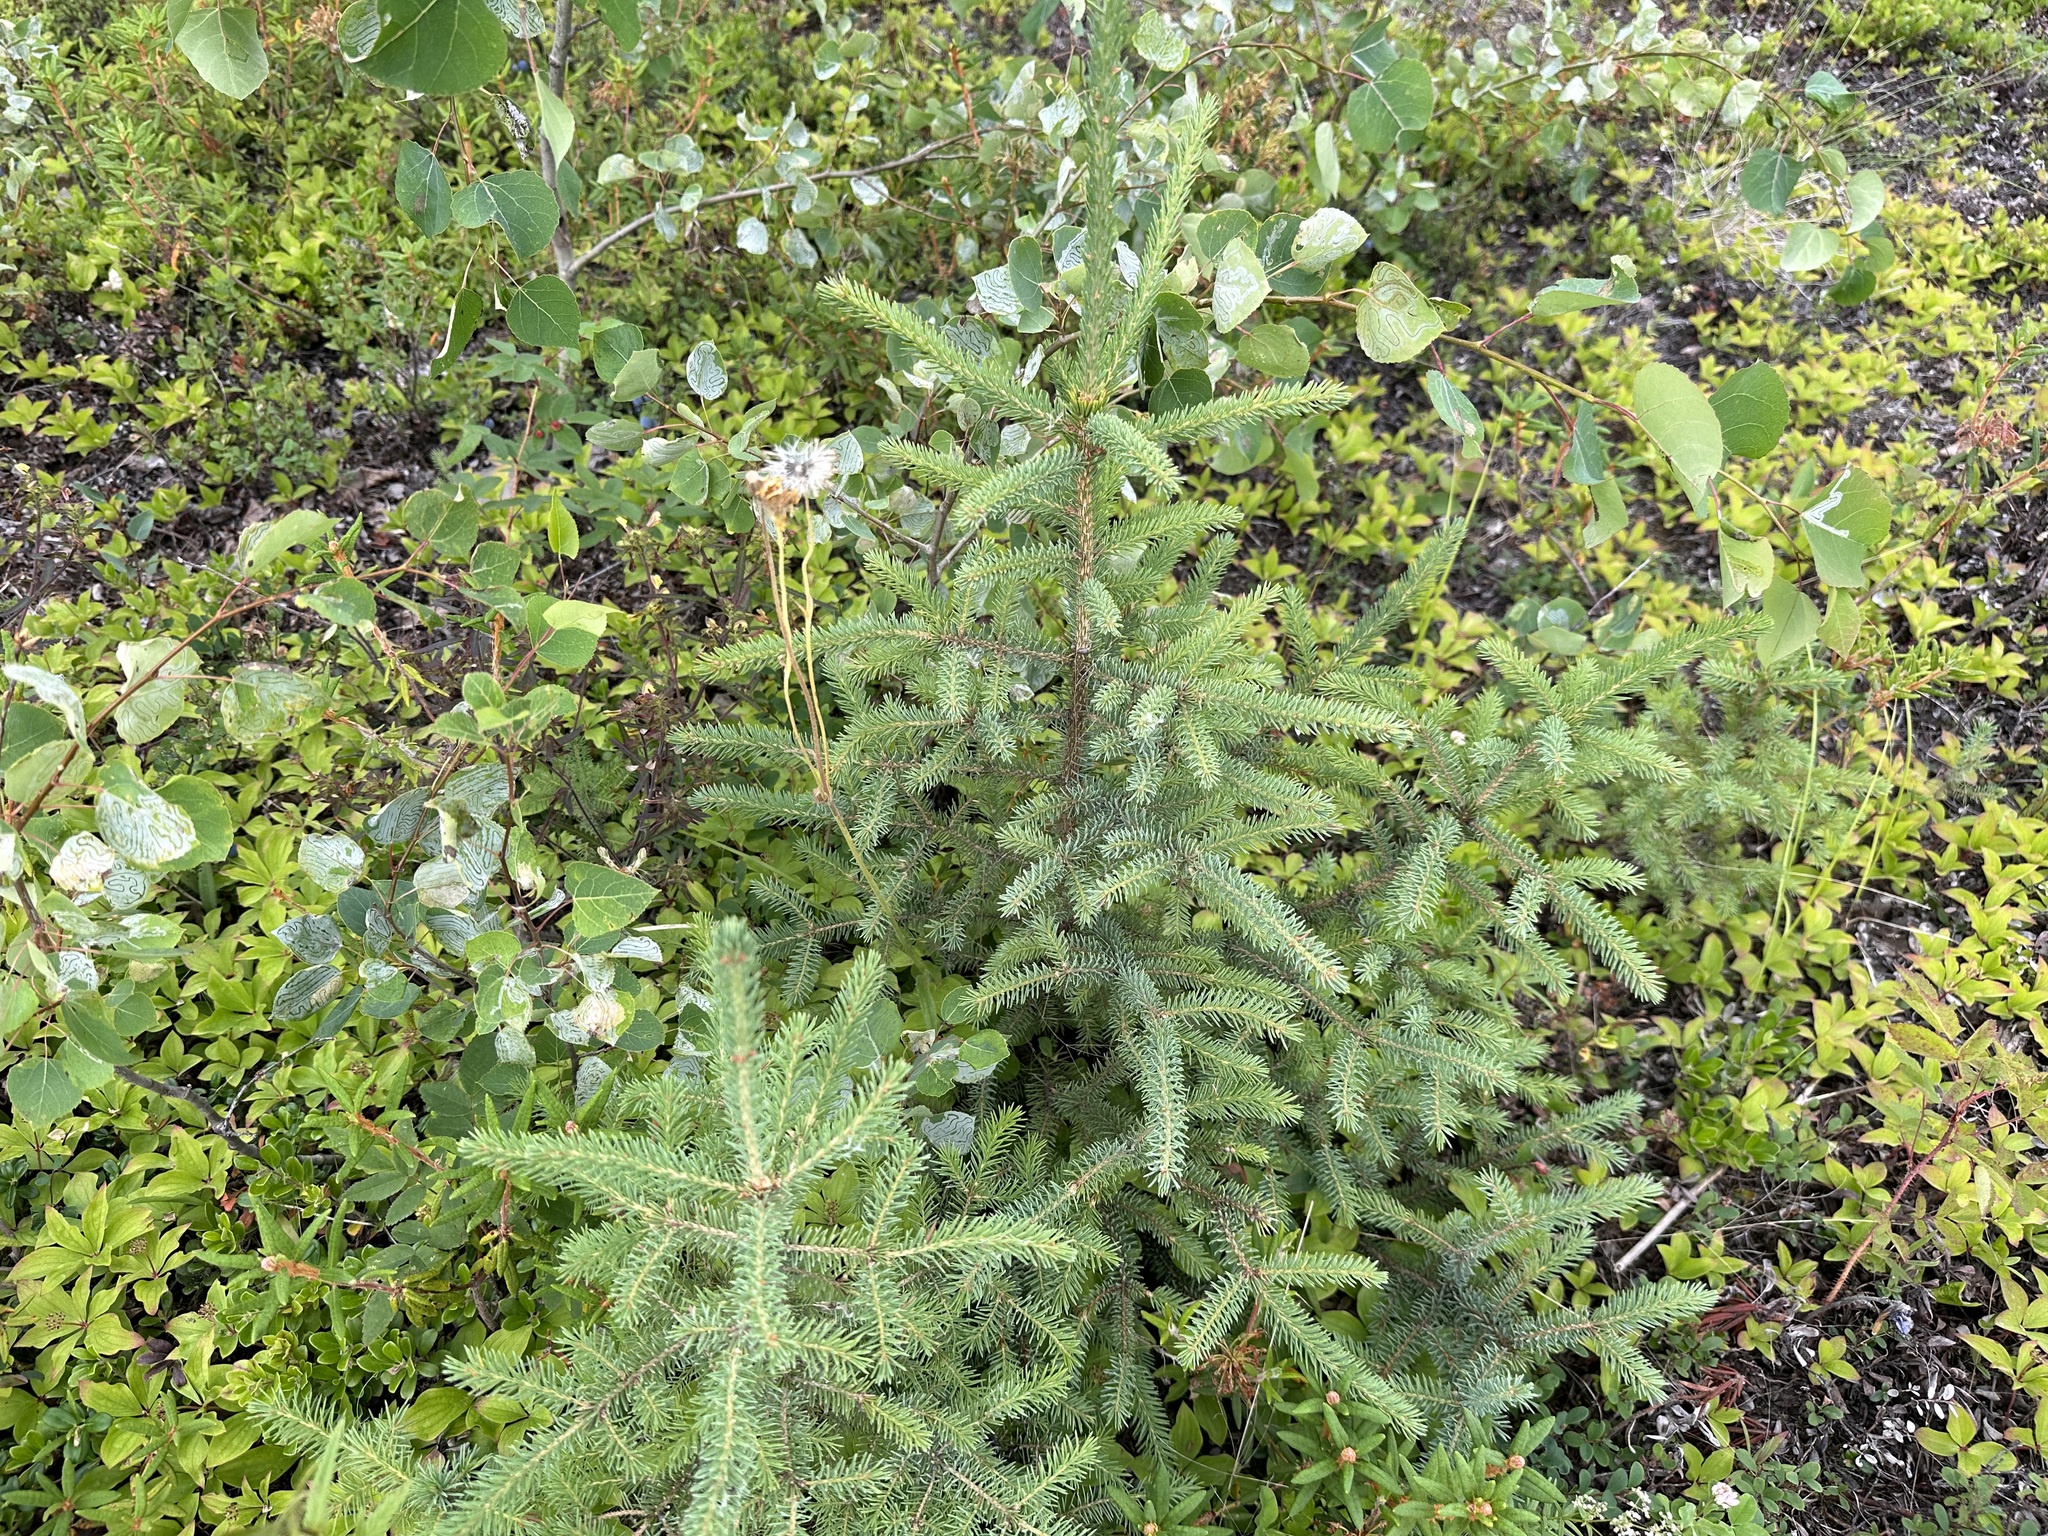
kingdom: Plantae
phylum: Tracheophyta
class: Pinopsida
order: Pinales
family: Pinaceae
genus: Picea
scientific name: Picea glauca
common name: White spruce
